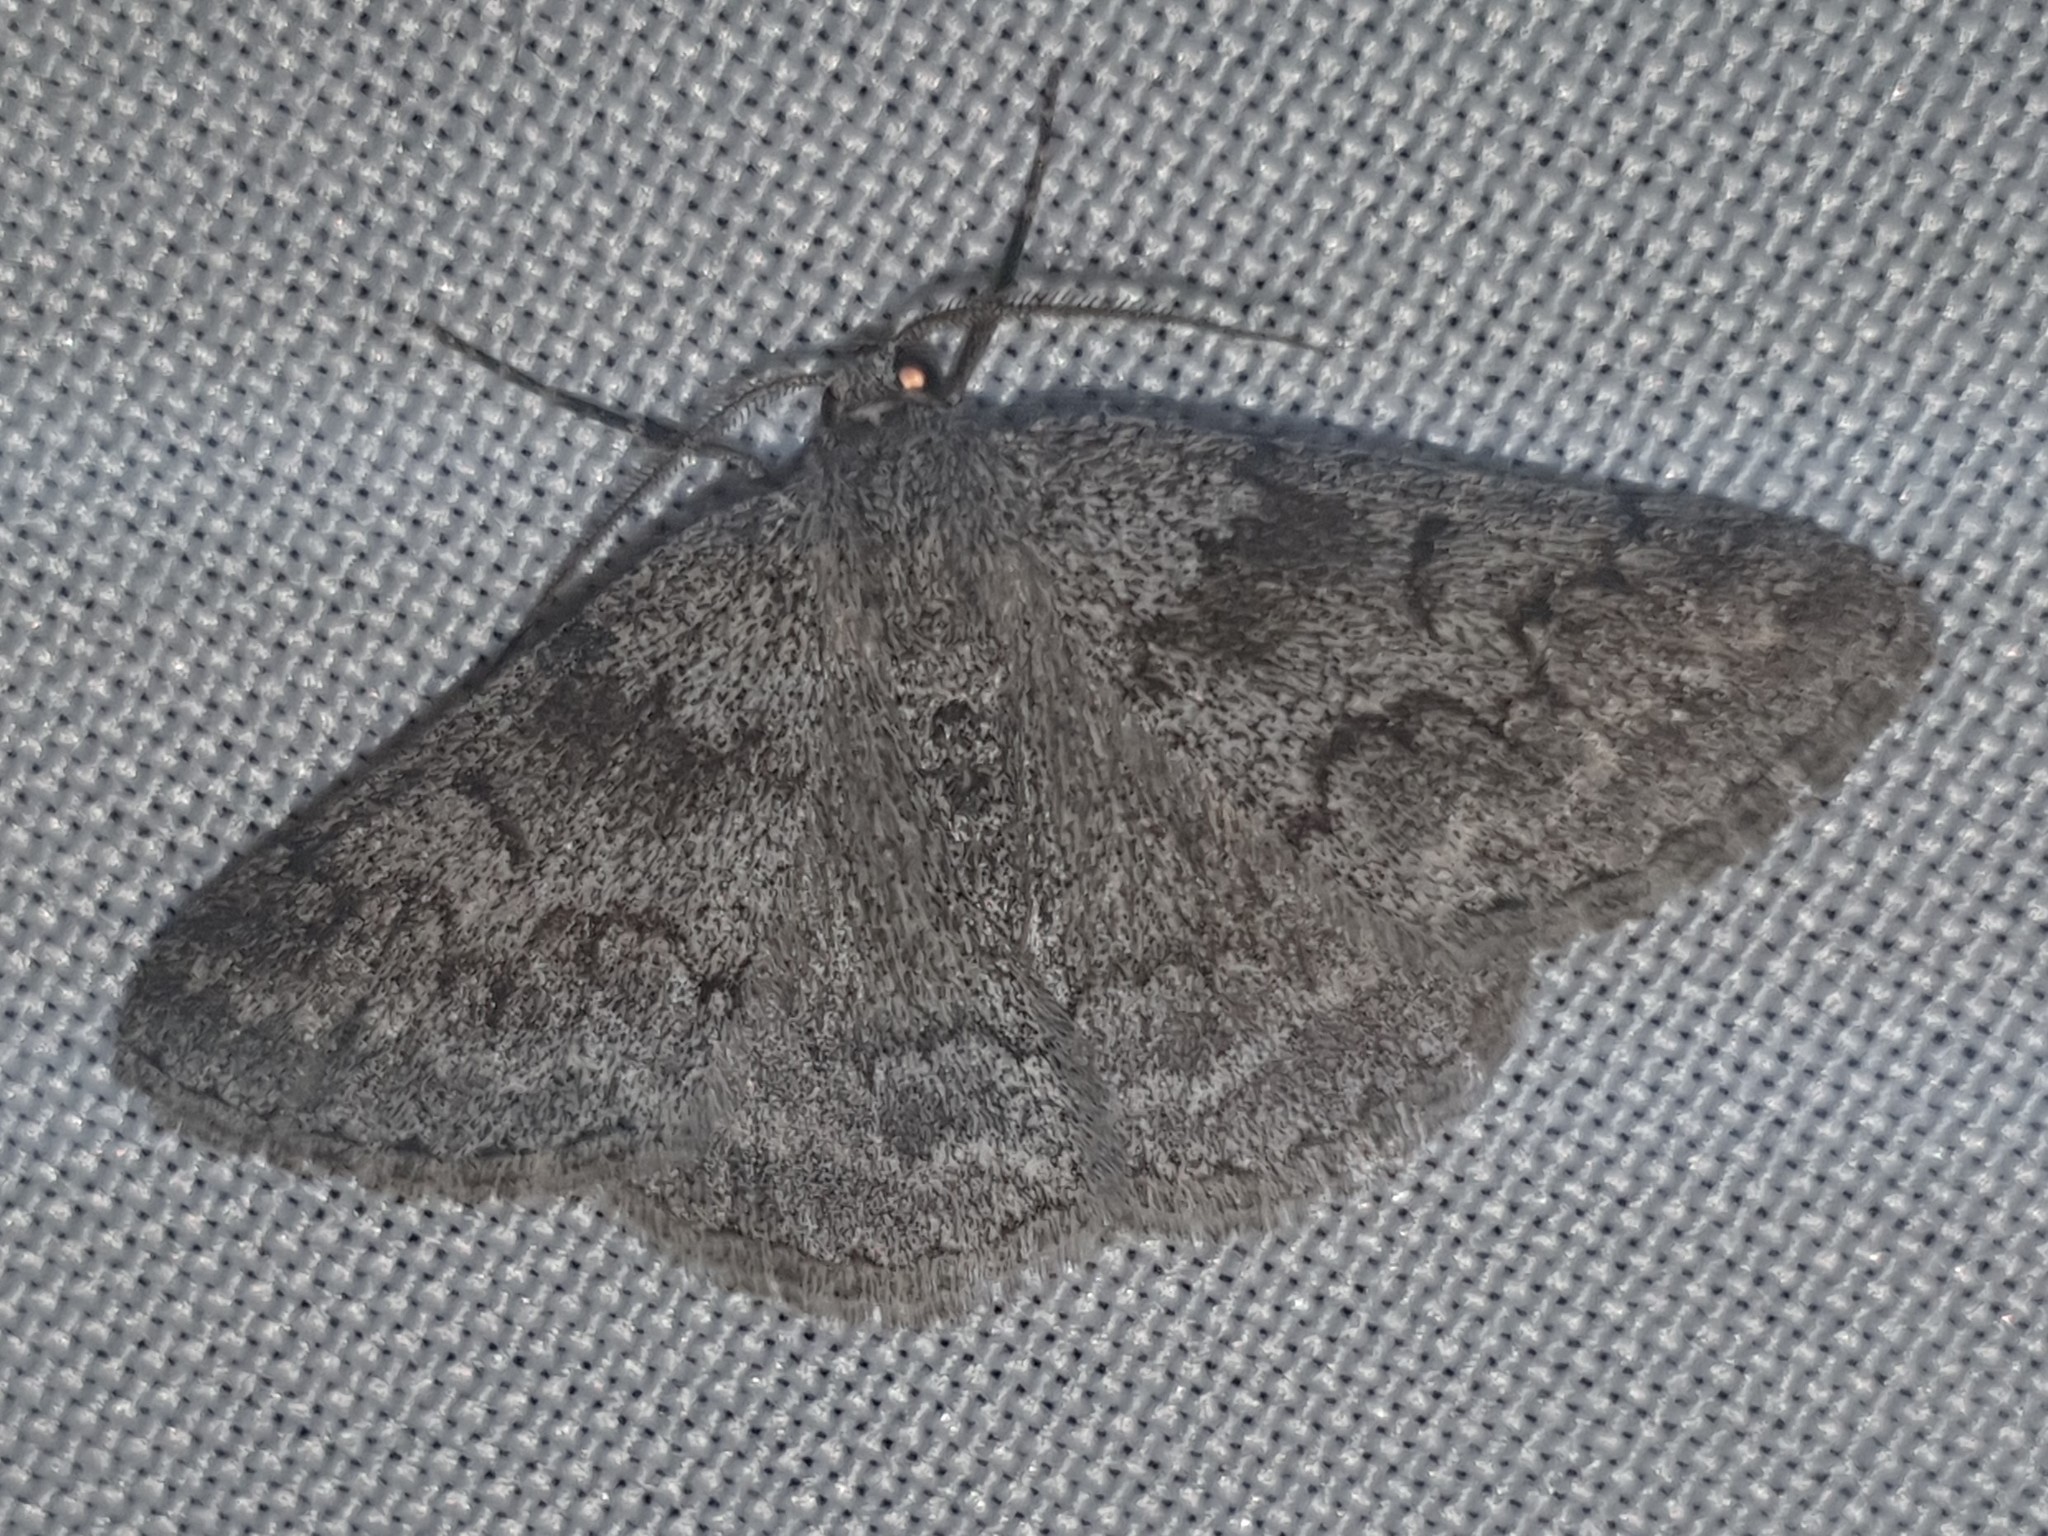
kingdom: Animalia
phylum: Arthropoda
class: Insecta
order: Lepidoptera
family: Geometridae
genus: Pseudoterpna
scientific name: Pseudoterpna coronillaria
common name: Jersey emerald
